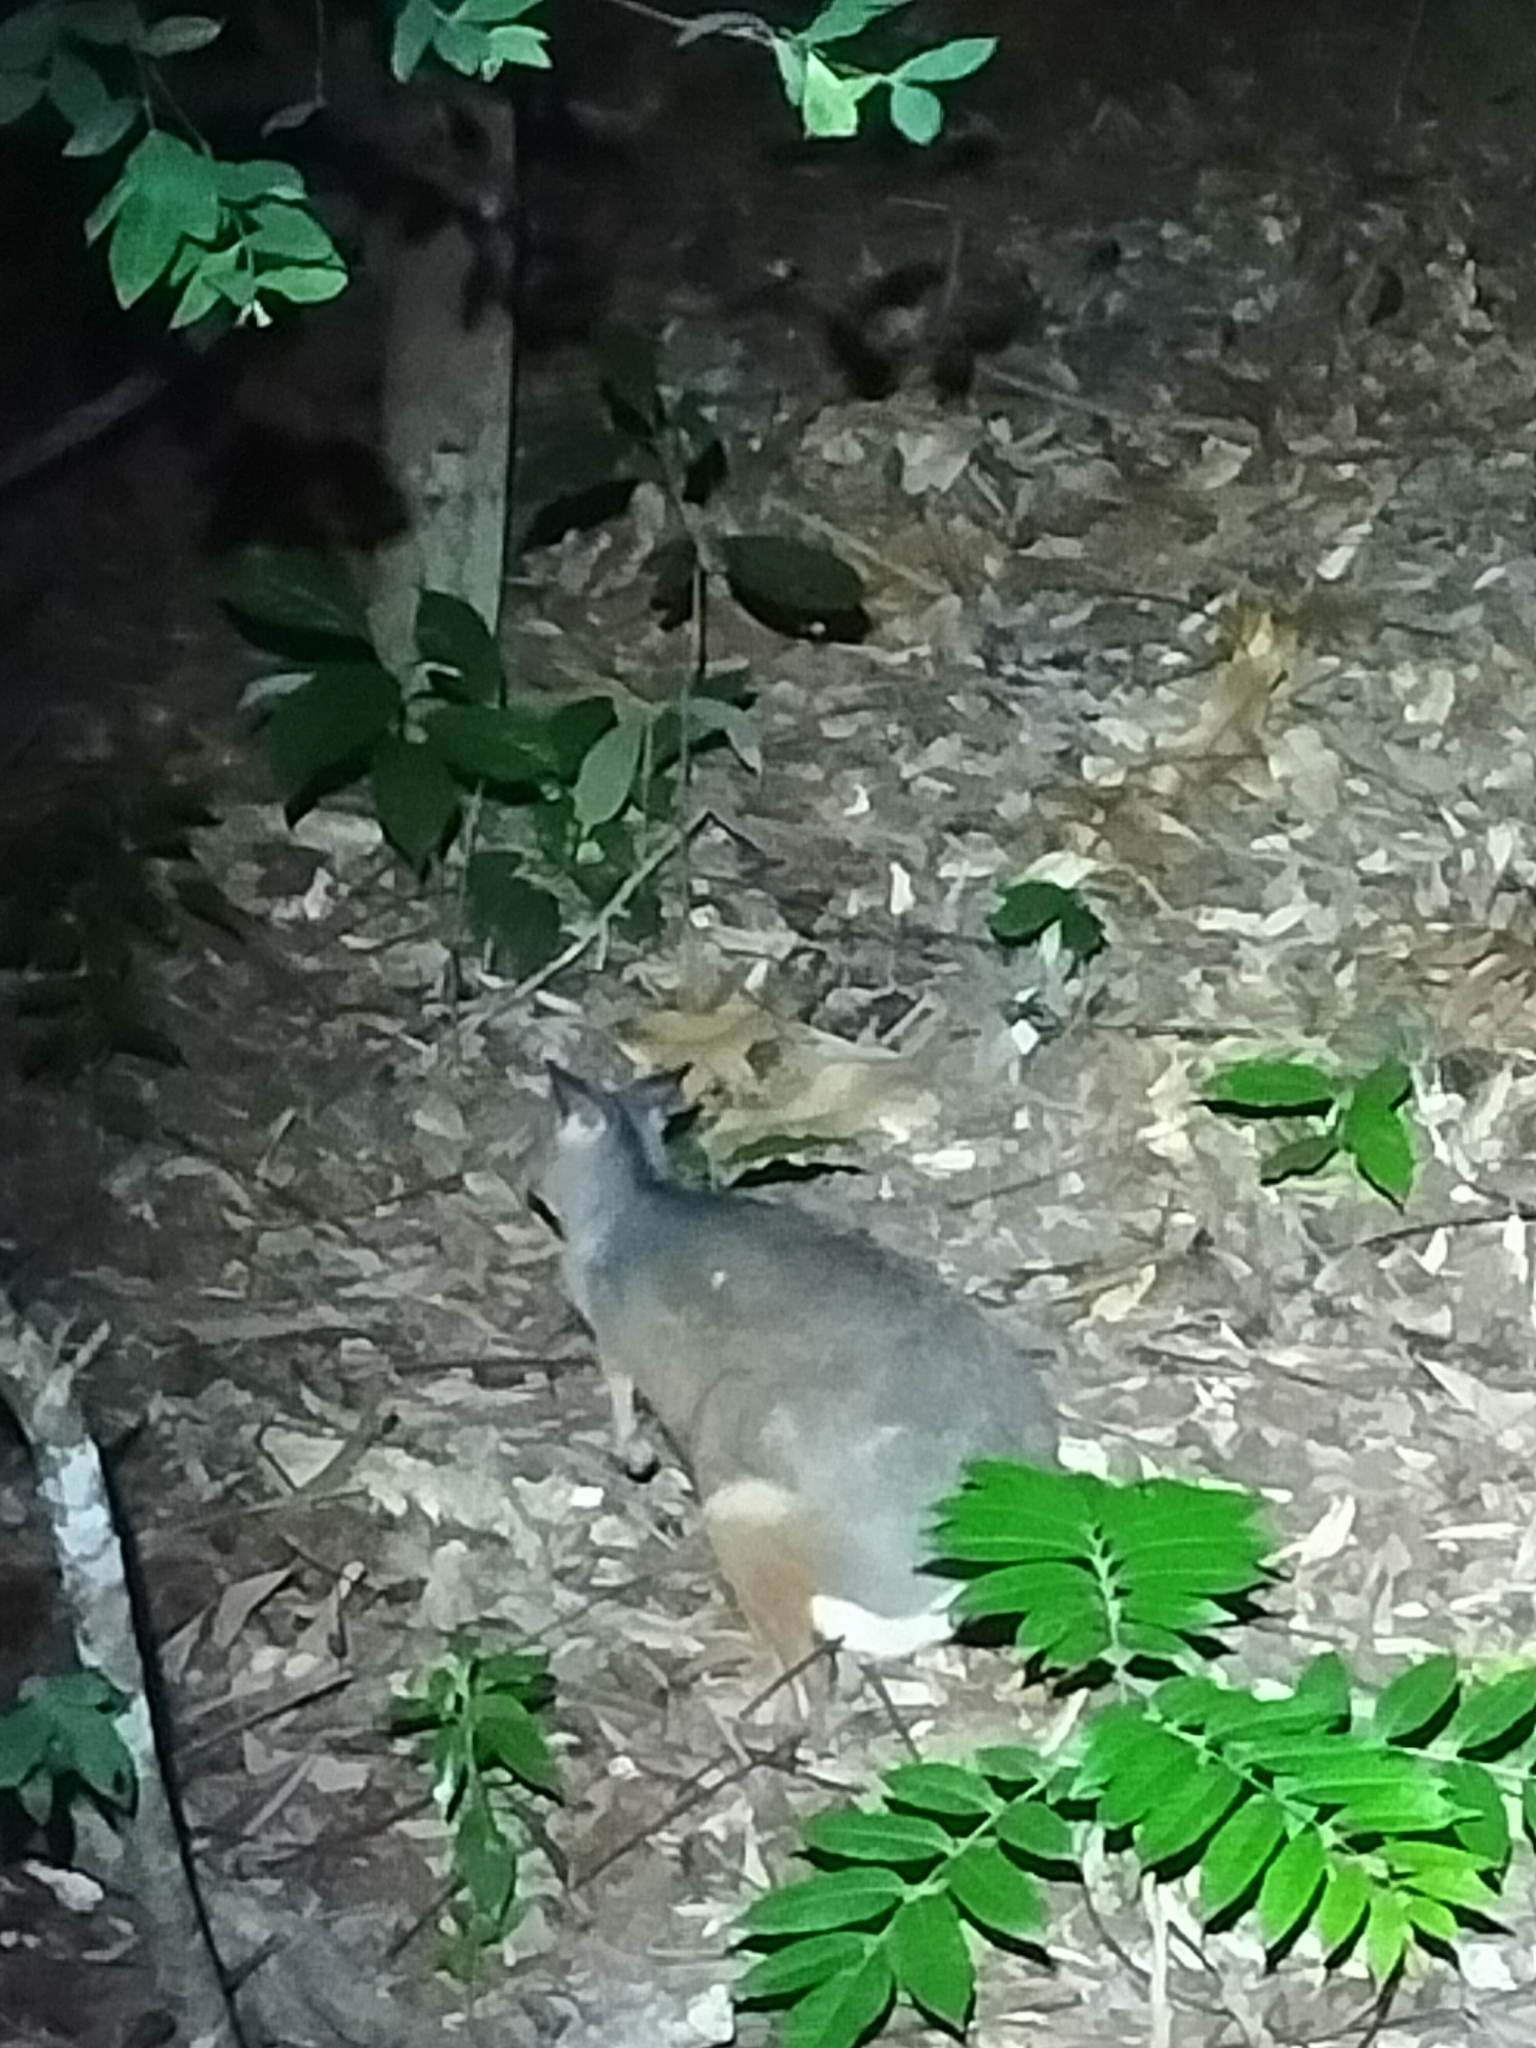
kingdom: Animalia
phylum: Chordata
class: Mammalia
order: Diprotodontia
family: Macropodidae
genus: Thylogale
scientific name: Thylogale stigmatica
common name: Red-legged pademelon
